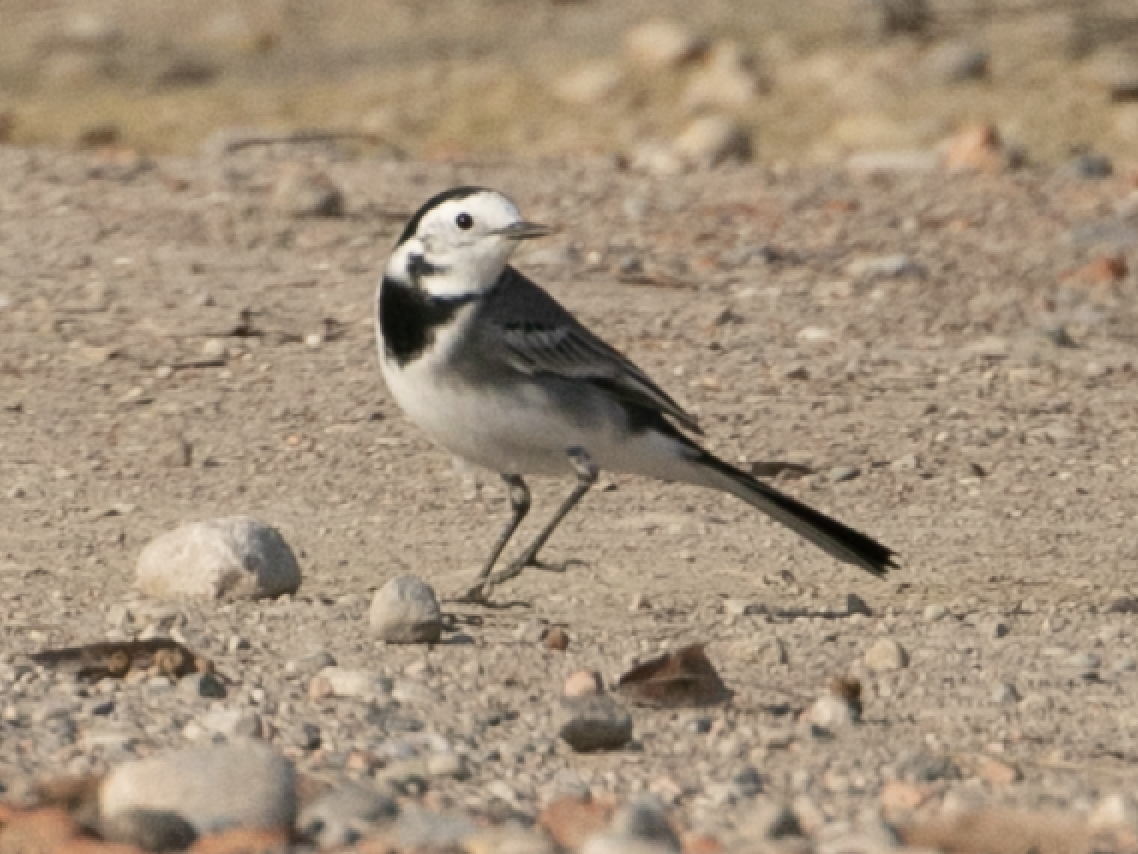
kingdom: Animalia
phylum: Chordata
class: Aves
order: Passeriformes
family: Motacillidae
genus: Motacilla
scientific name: Motacilla alba
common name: White wagtail
